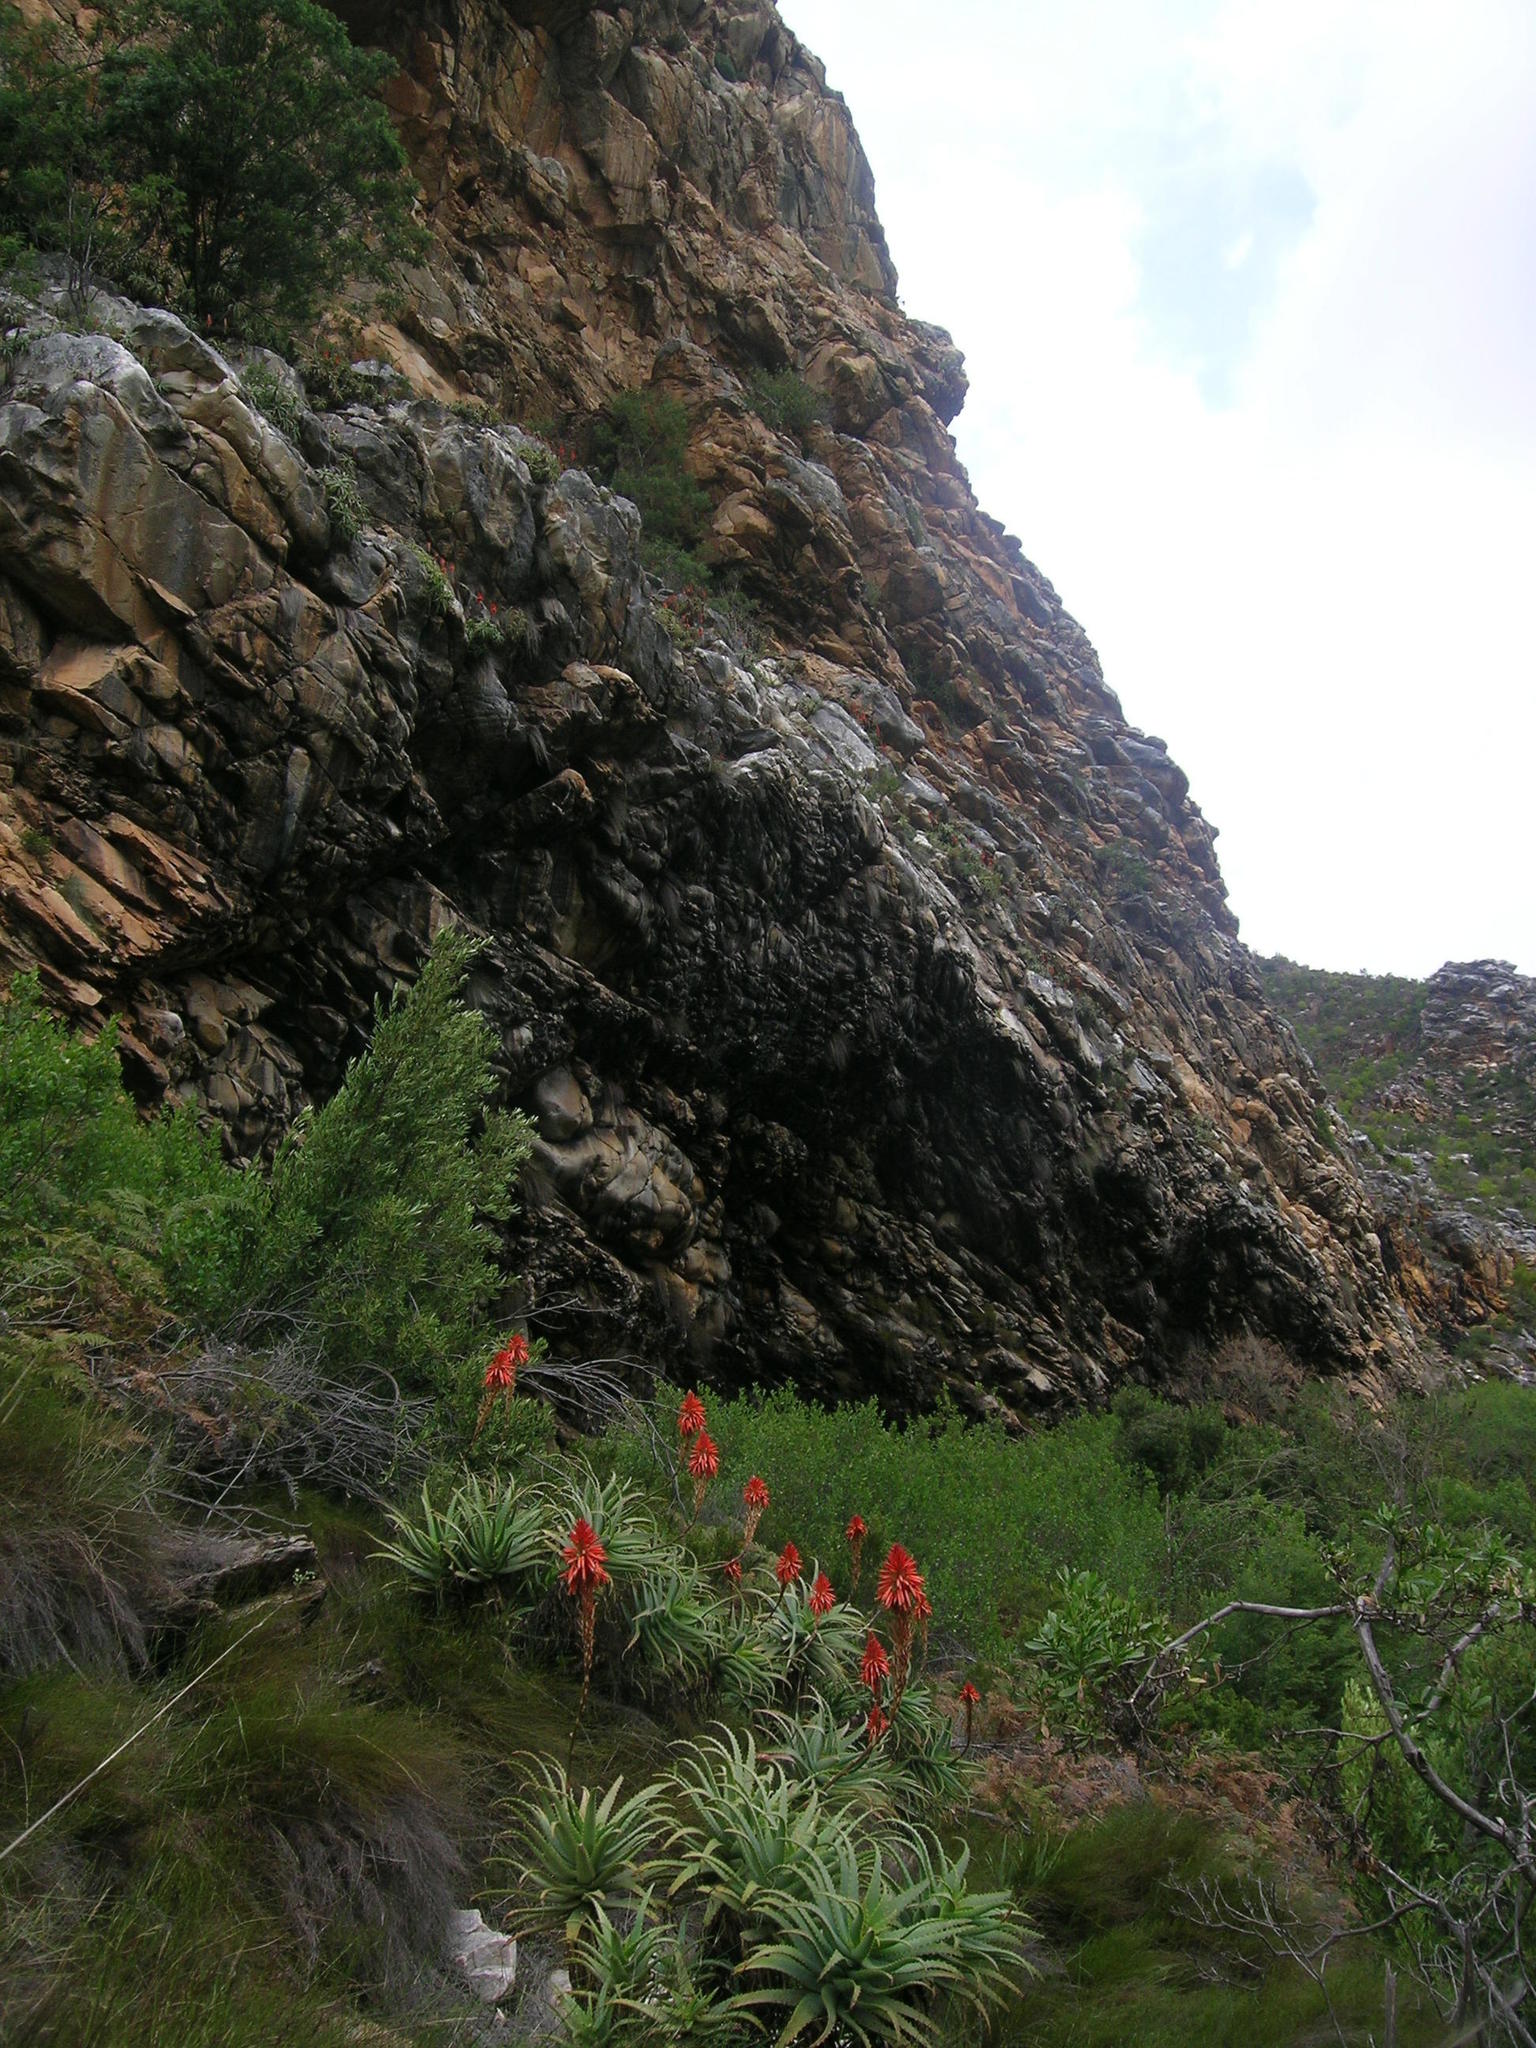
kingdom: Plantae
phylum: Tracheophyta
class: Liliopsida
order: Asparagales
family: Asphodelaceae
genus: Aloe
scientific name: Aloe arborescens
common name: Candelabra aloe
